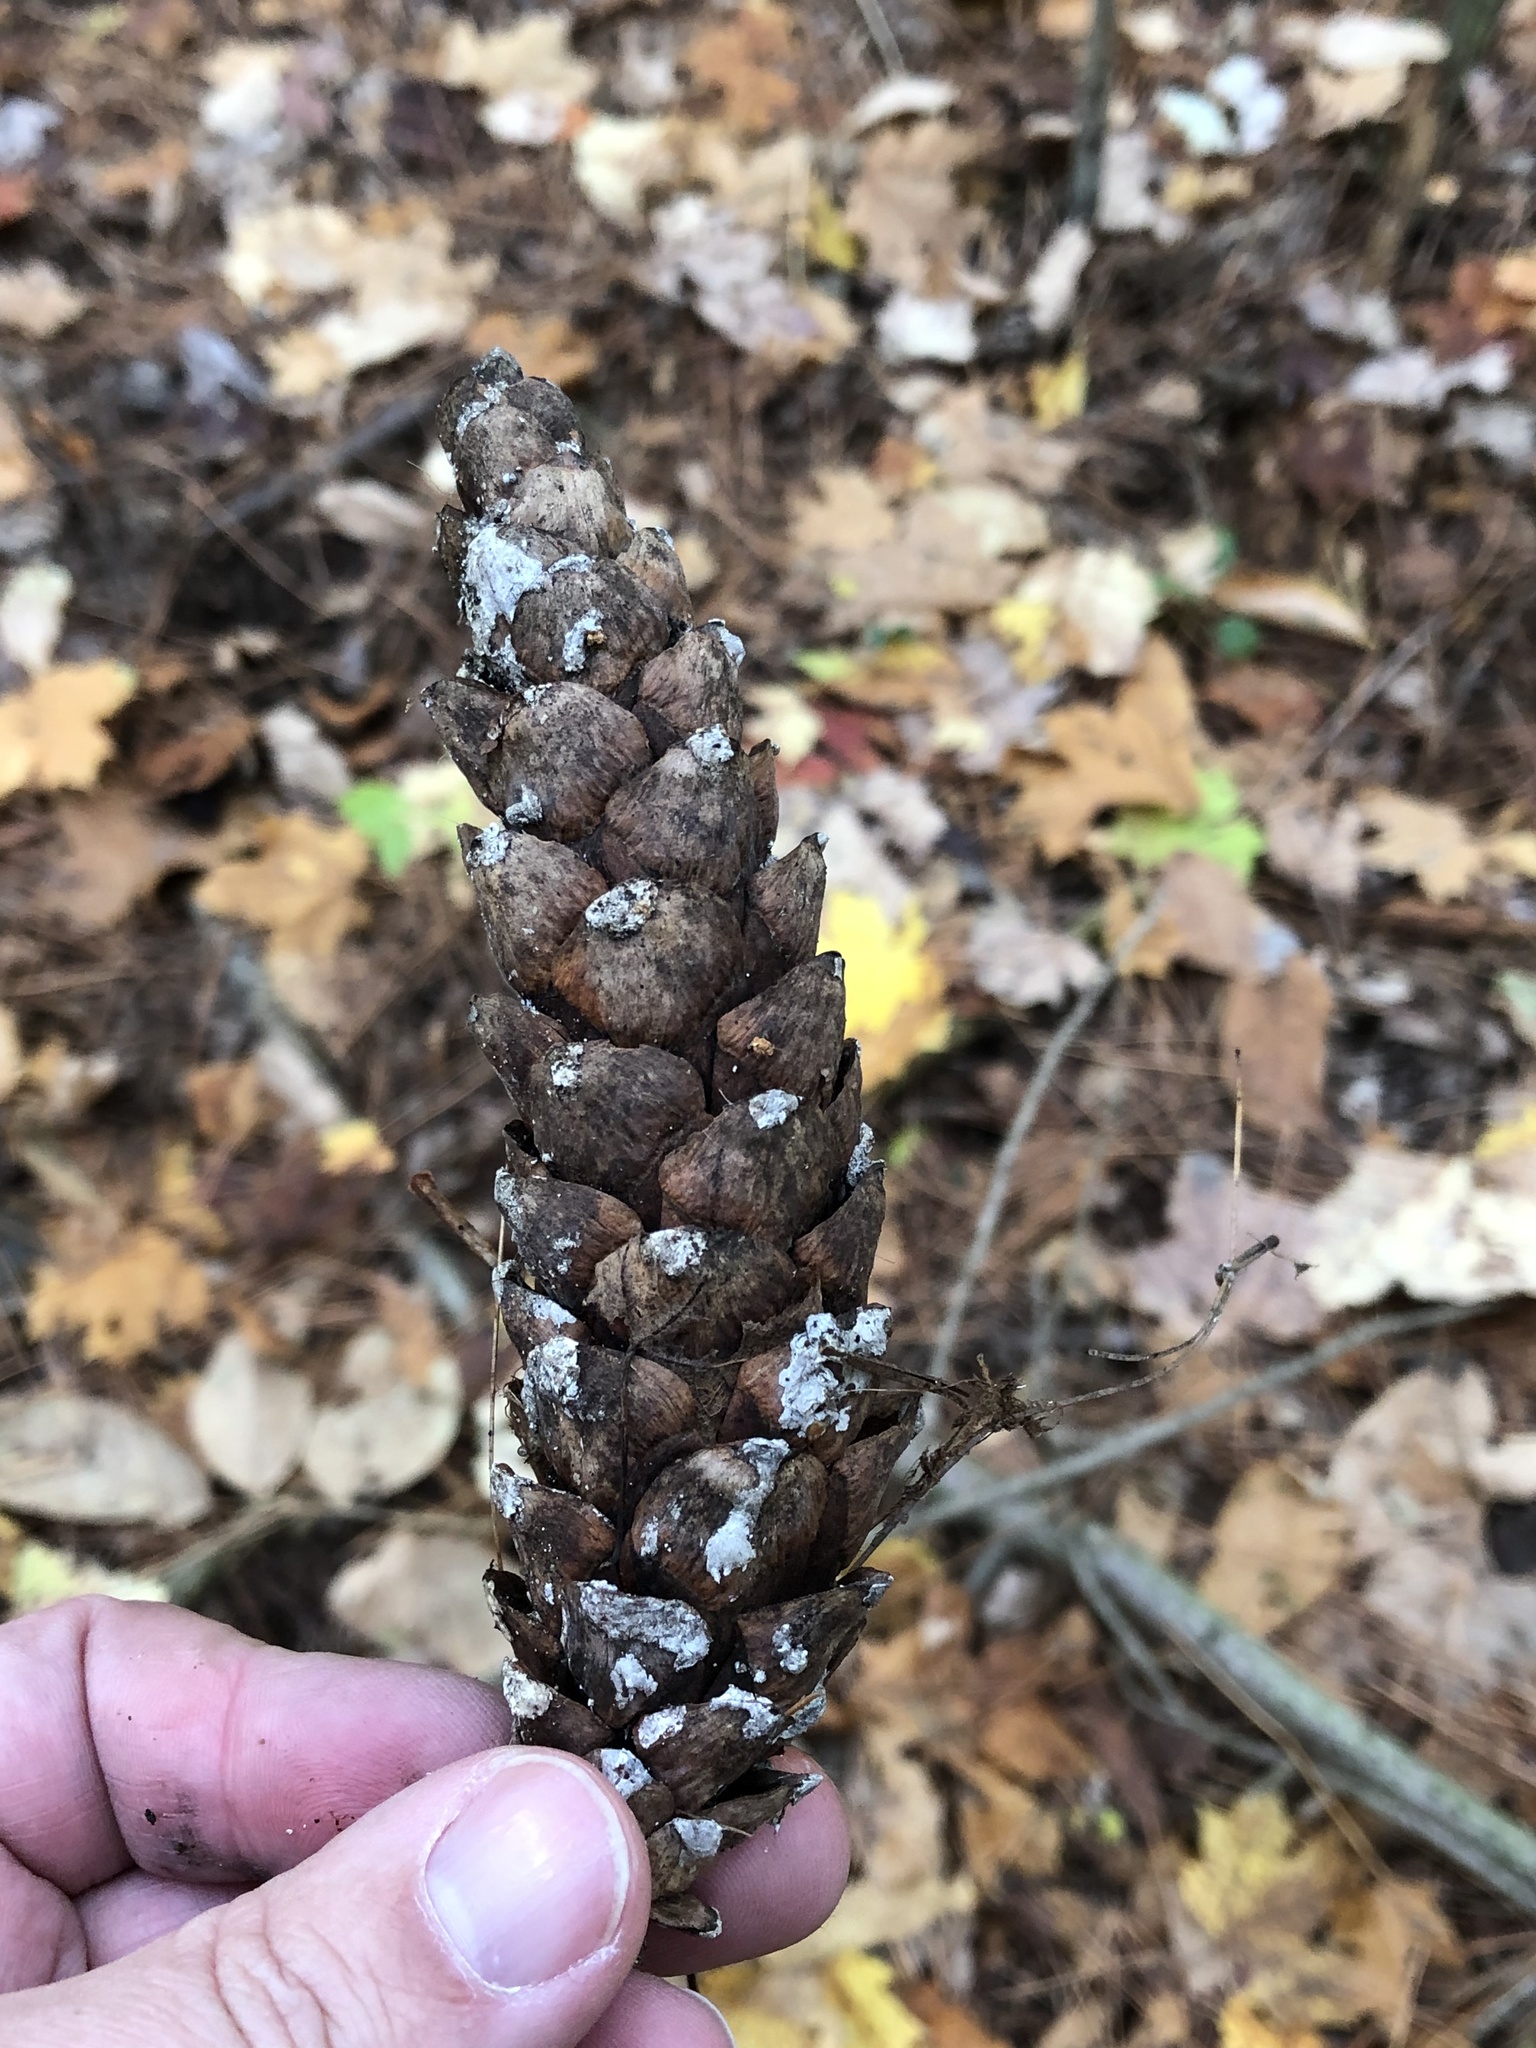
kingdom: Plantae
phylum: Tracheophyta
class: Pinopsida
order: Pinales
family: Pinaceae
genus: Pinus
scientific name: Pinus strobus
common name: Weymouth pine
